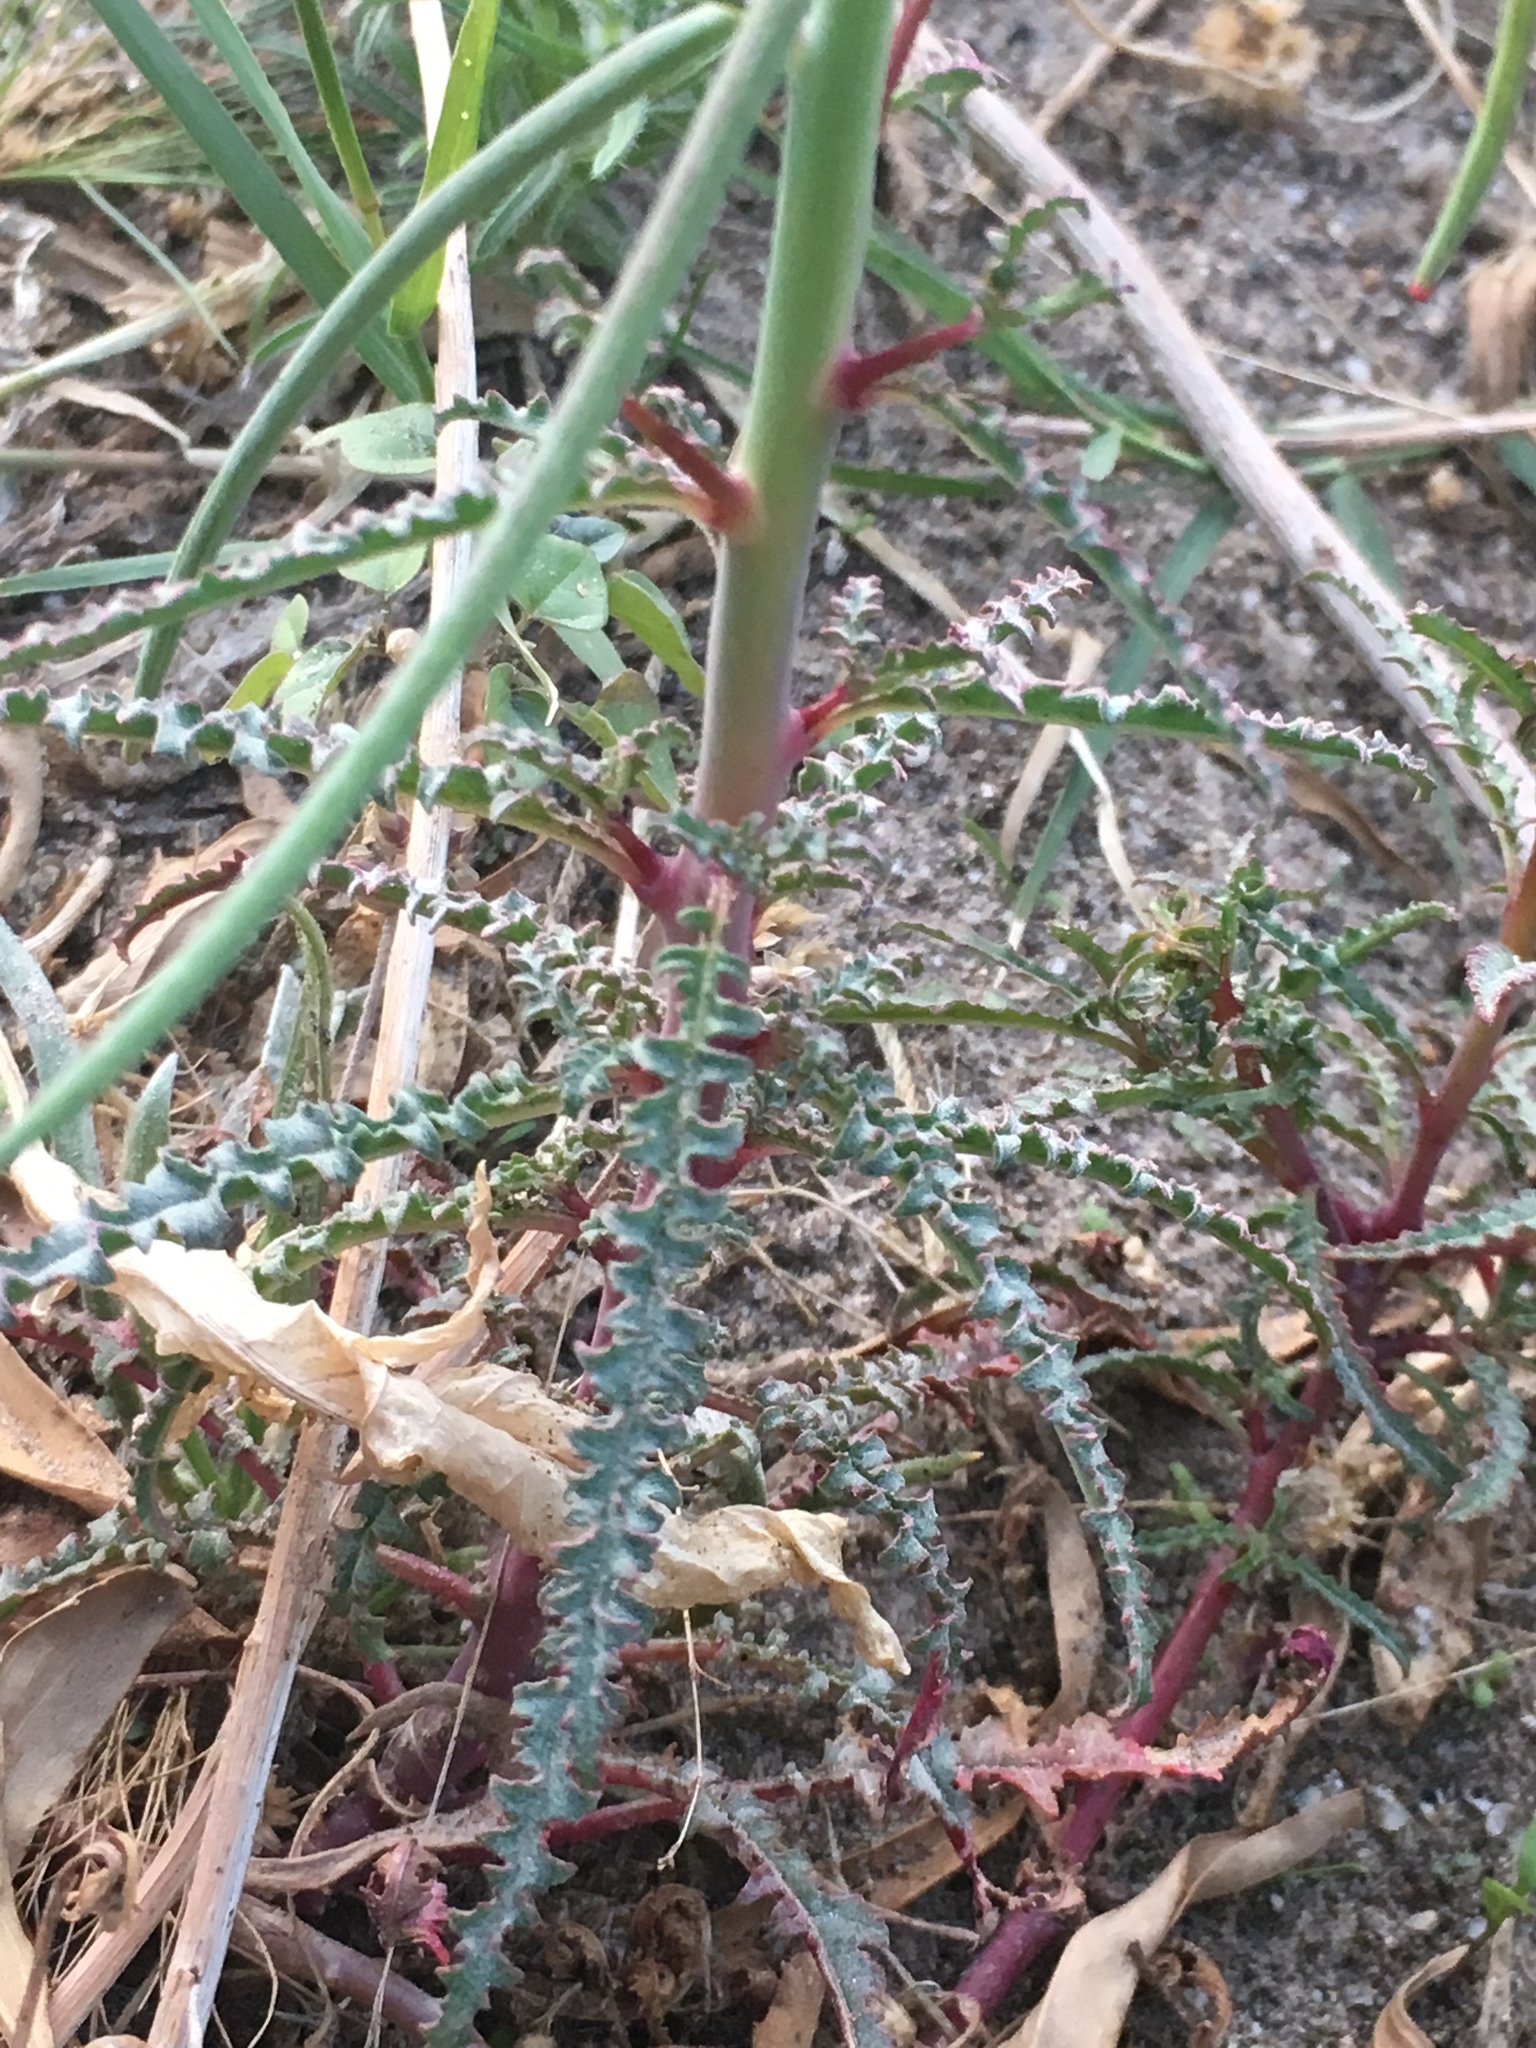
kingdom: Plantae
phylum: Tracheophyta
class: Magnoliopsida
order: Myrtales
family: Onagraceae
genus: Eulobus
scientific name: Eulobus californicus
